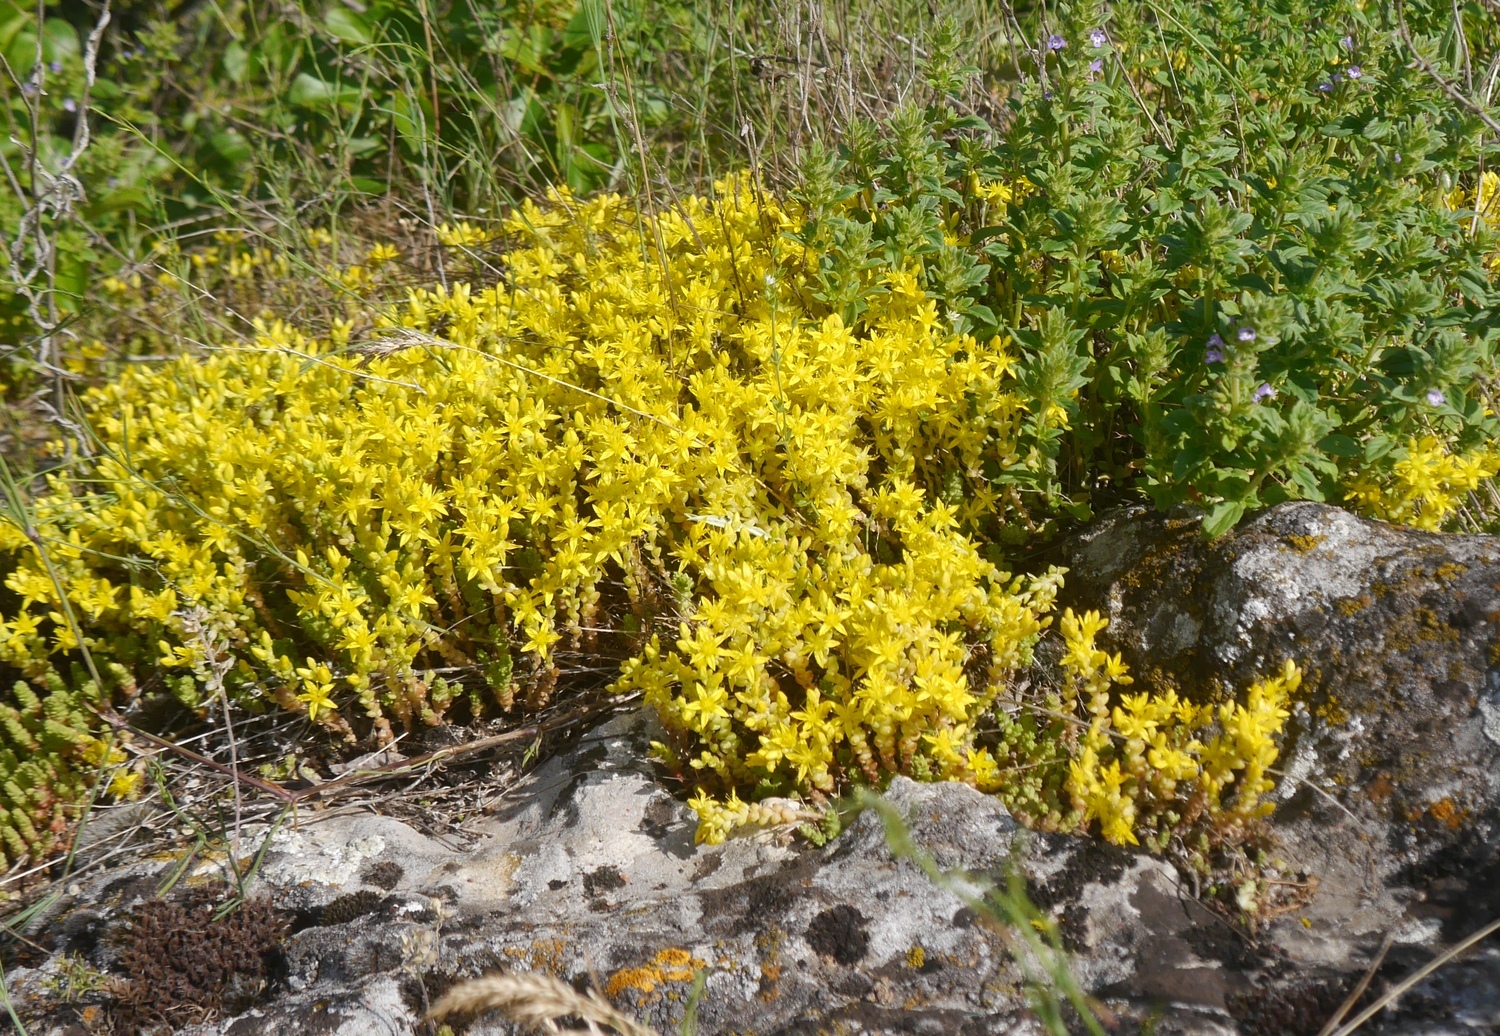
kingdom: Plantae
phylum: Tracheophyta
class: Magnoliopsida
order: Saxifragales
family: Crassulaceae
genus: Sedum
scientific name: Sedum acre
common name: Biting stonecrop
